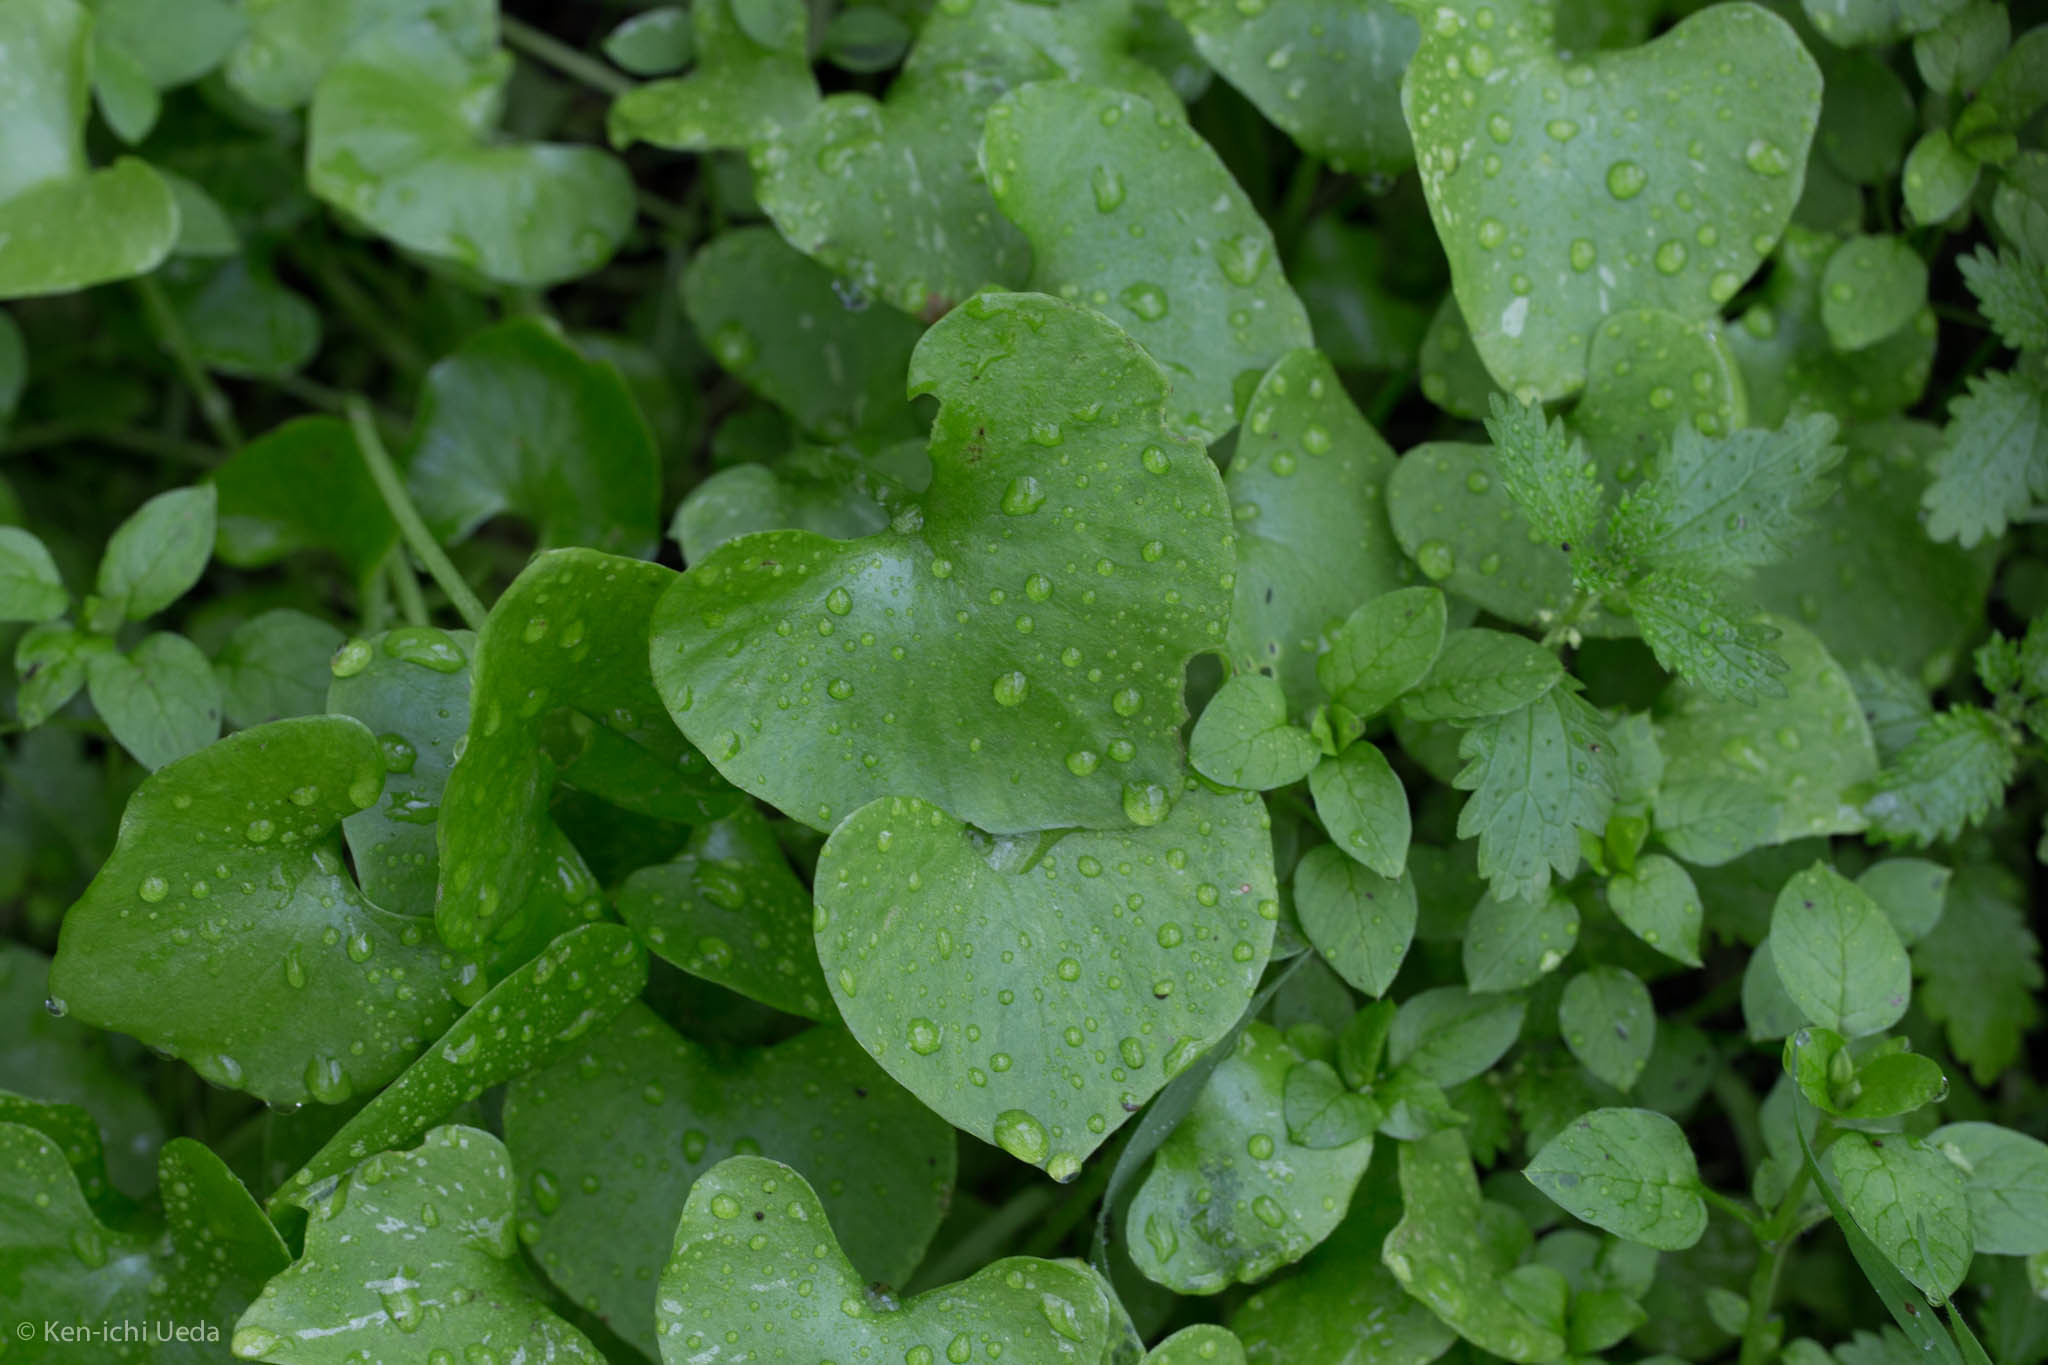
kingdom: Plantae
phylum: Tracheophyta
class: Magnoliopsida
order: Caryophyllales
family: Montiaceae
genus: Claytonia
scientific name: Claytonia perfoliata
